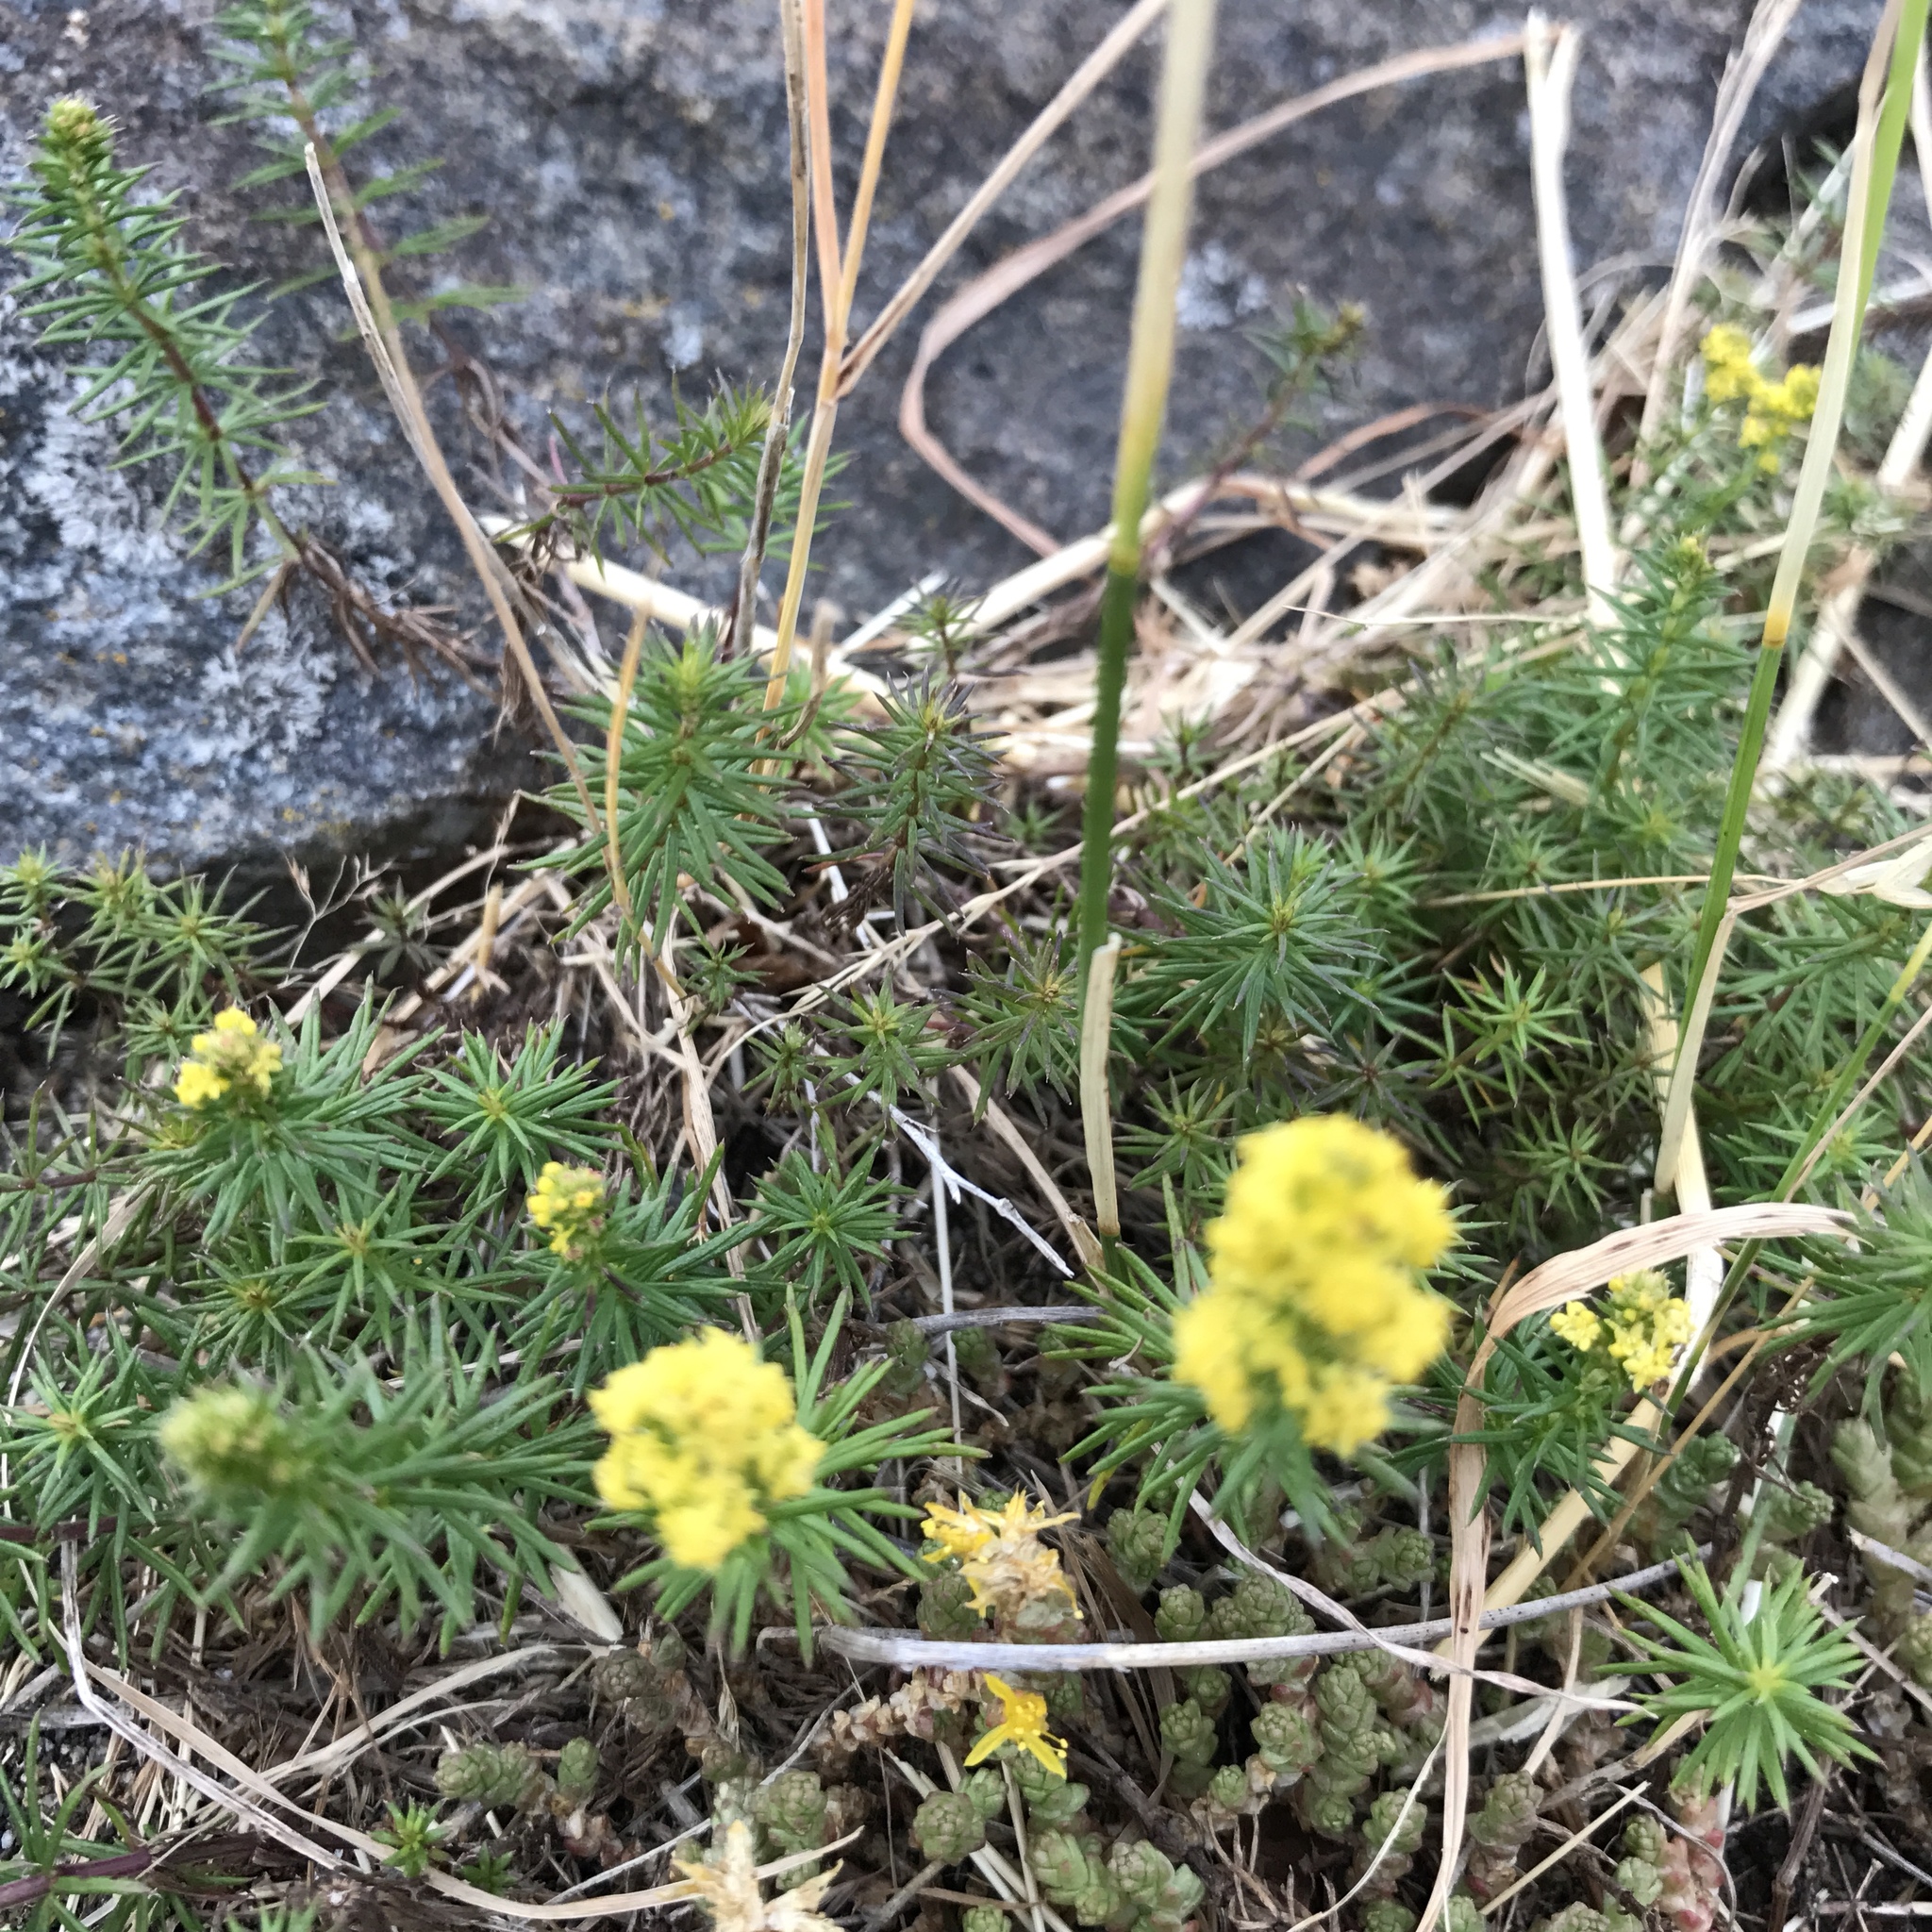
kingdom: Plantae
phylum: Tracheophyta
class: Magnoliopsida
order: Gentianales
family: Rubiaceae
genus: Galium
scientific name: Galium verum
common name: Lady's bedstraw
